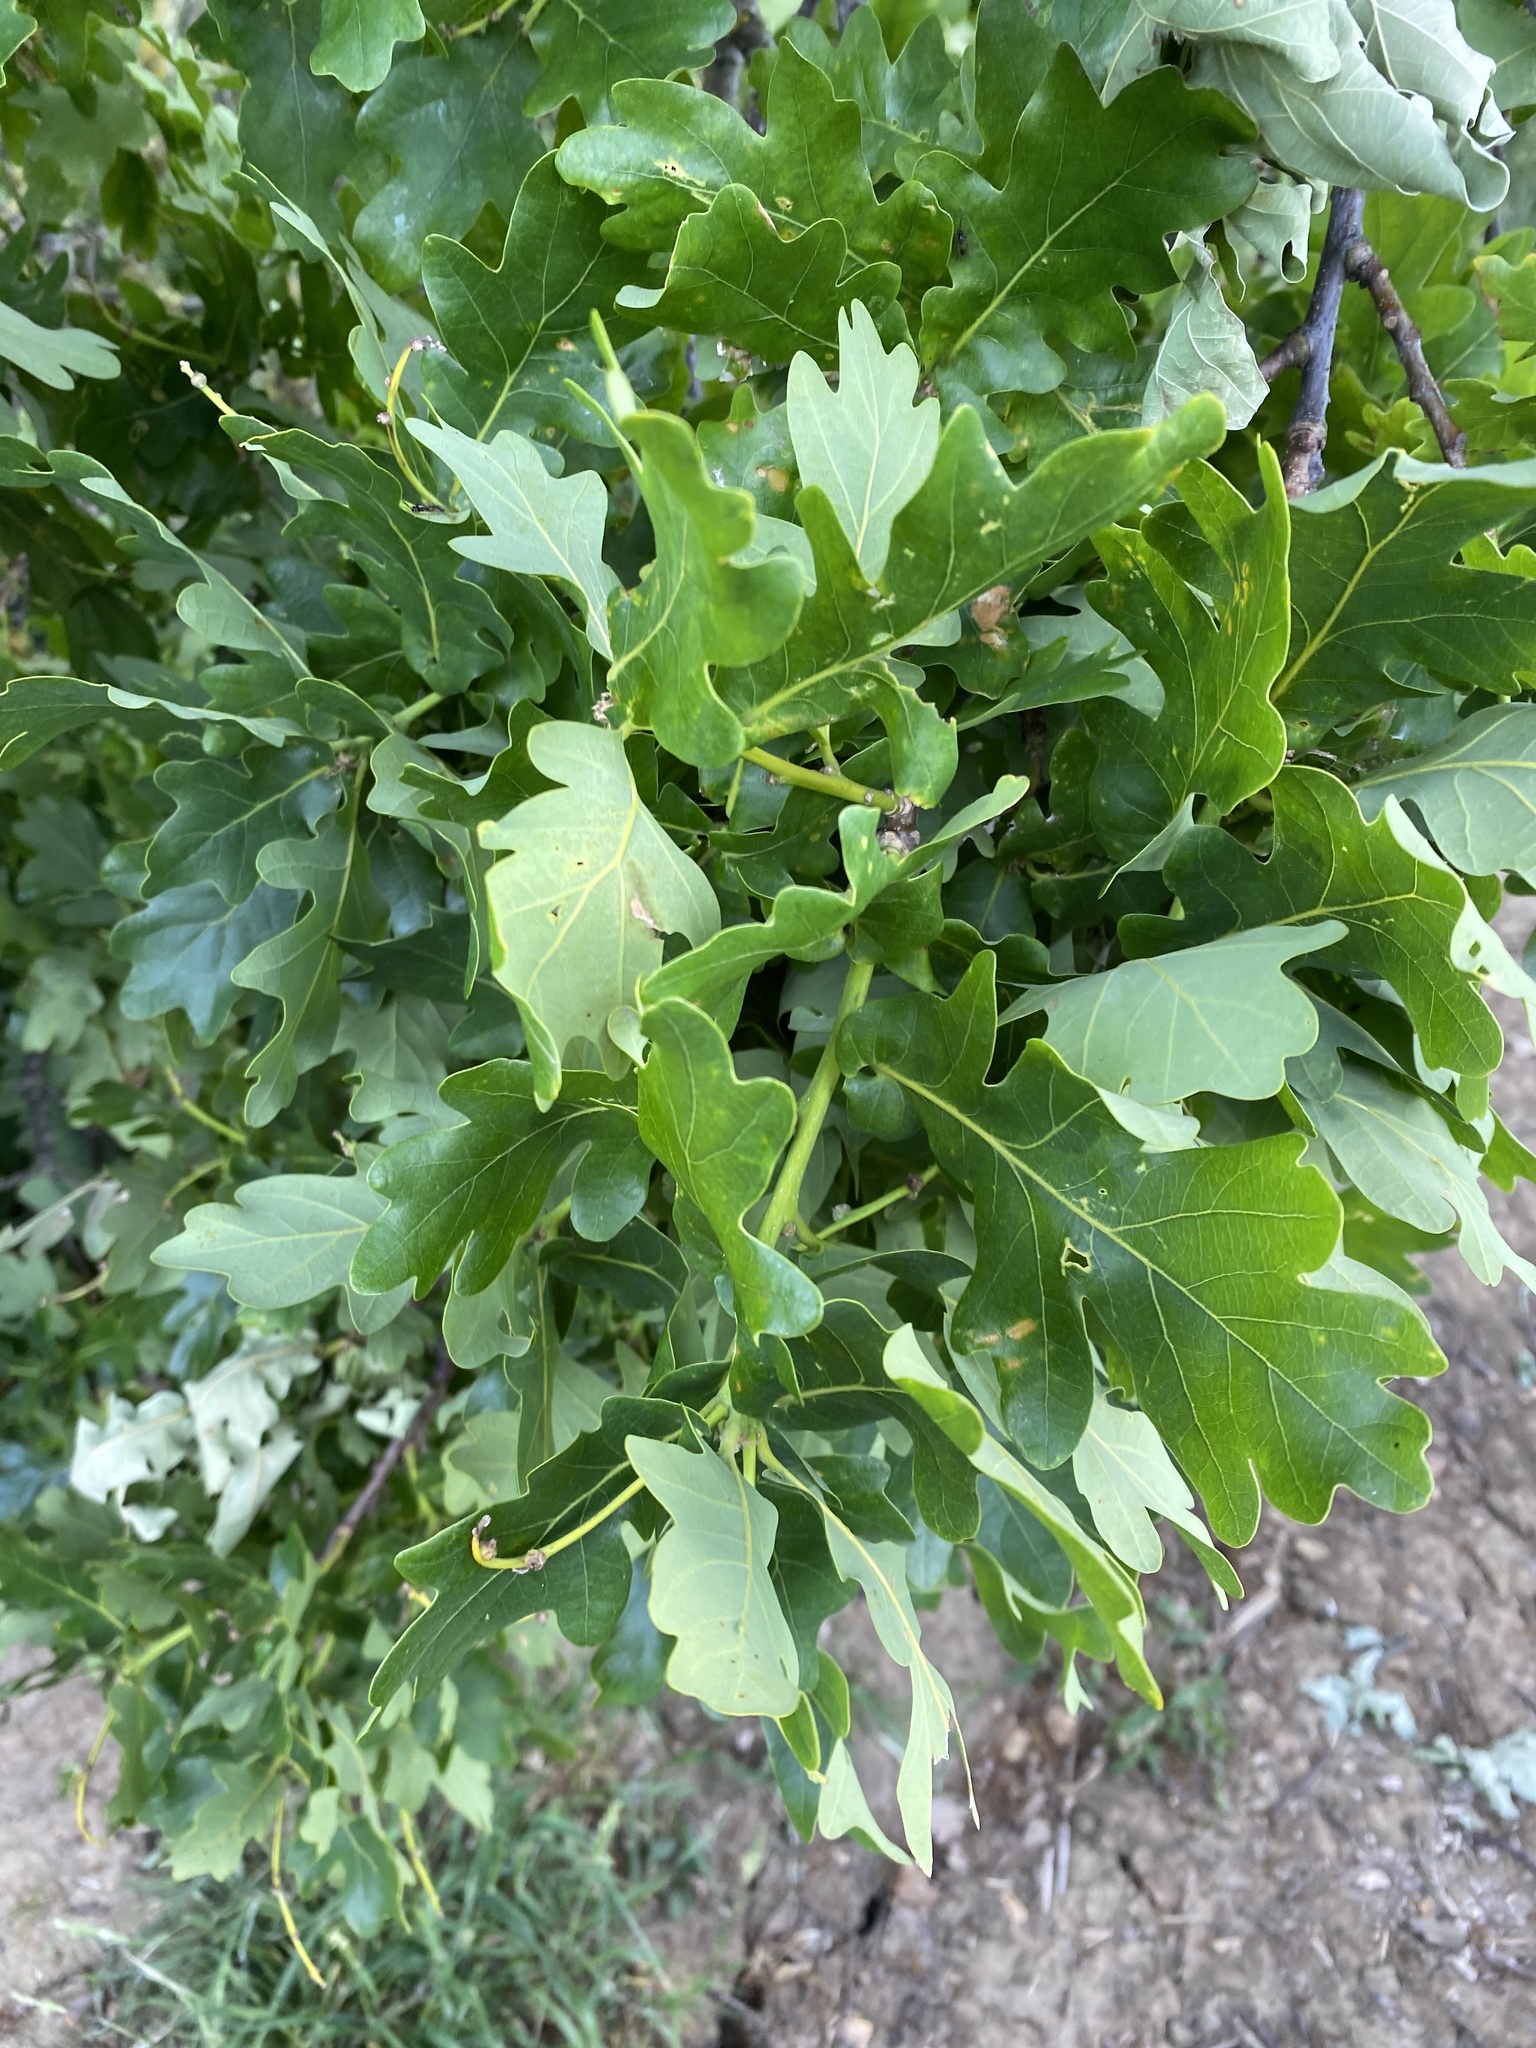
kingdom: Plantae
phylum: Tracheophyta
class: Magnoliopsida
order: Fagales
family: Fagaceae
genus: Quercus
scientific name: Quercus robur
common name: Pedunculate oak
